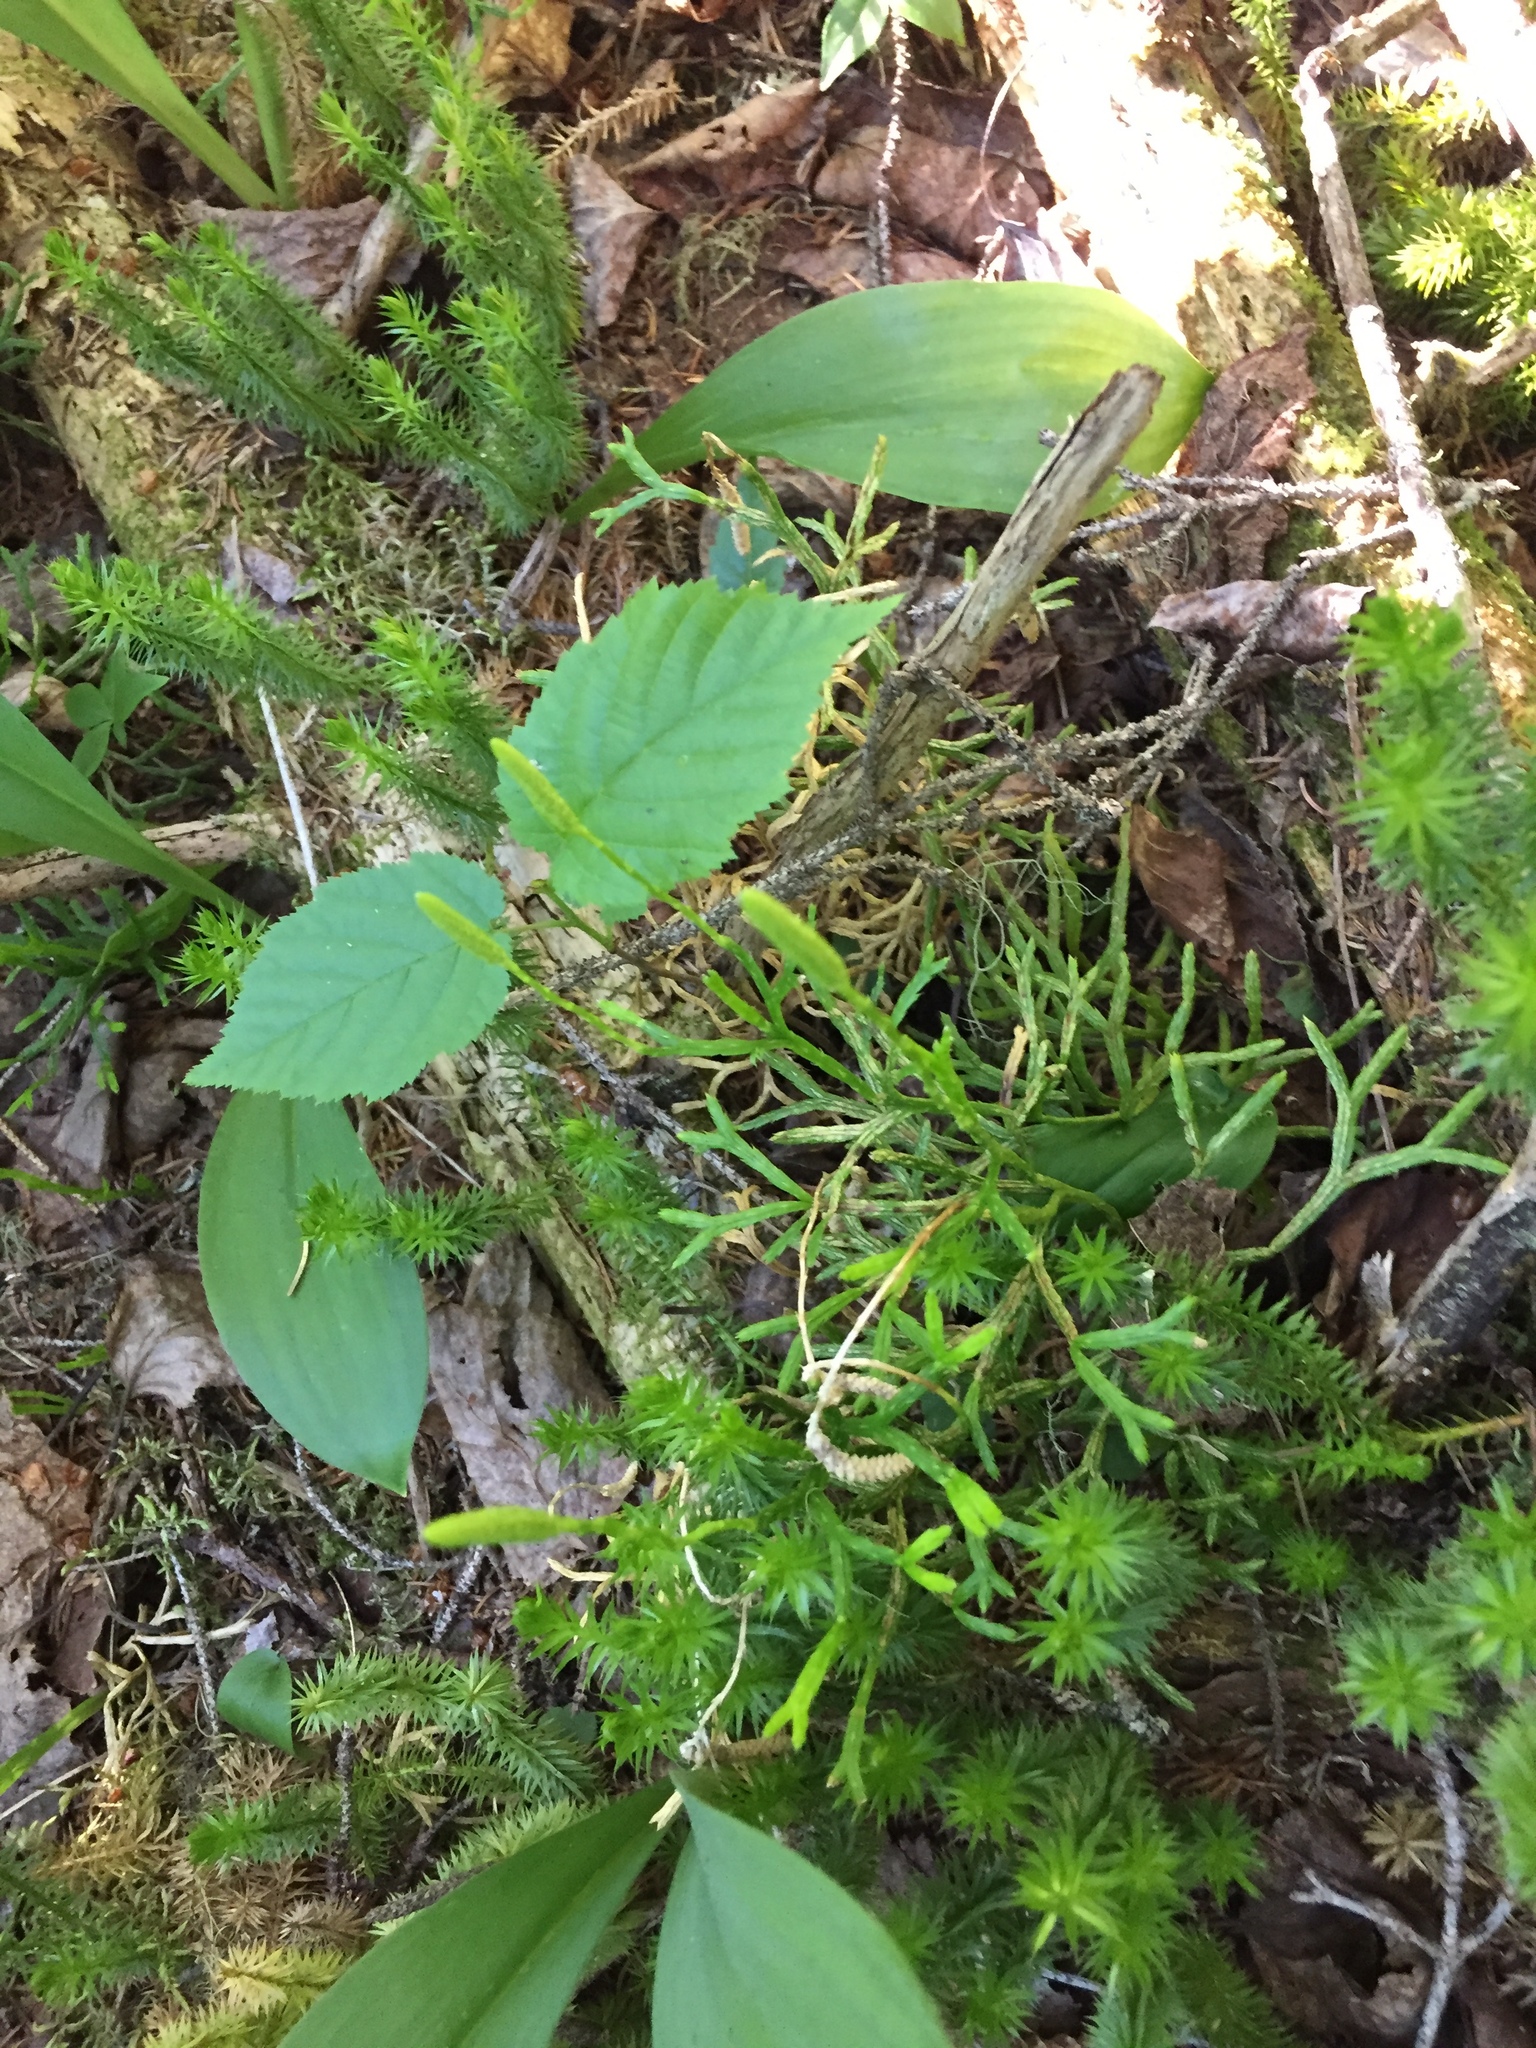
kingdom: Plantae
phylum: Tracheophyta
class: Lycopodiopsida
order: Lycopodiales
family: Lycopodiaceae
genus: Diphasiastrum
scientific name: Diphasiastrum complanatum
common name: Northern running-pine
